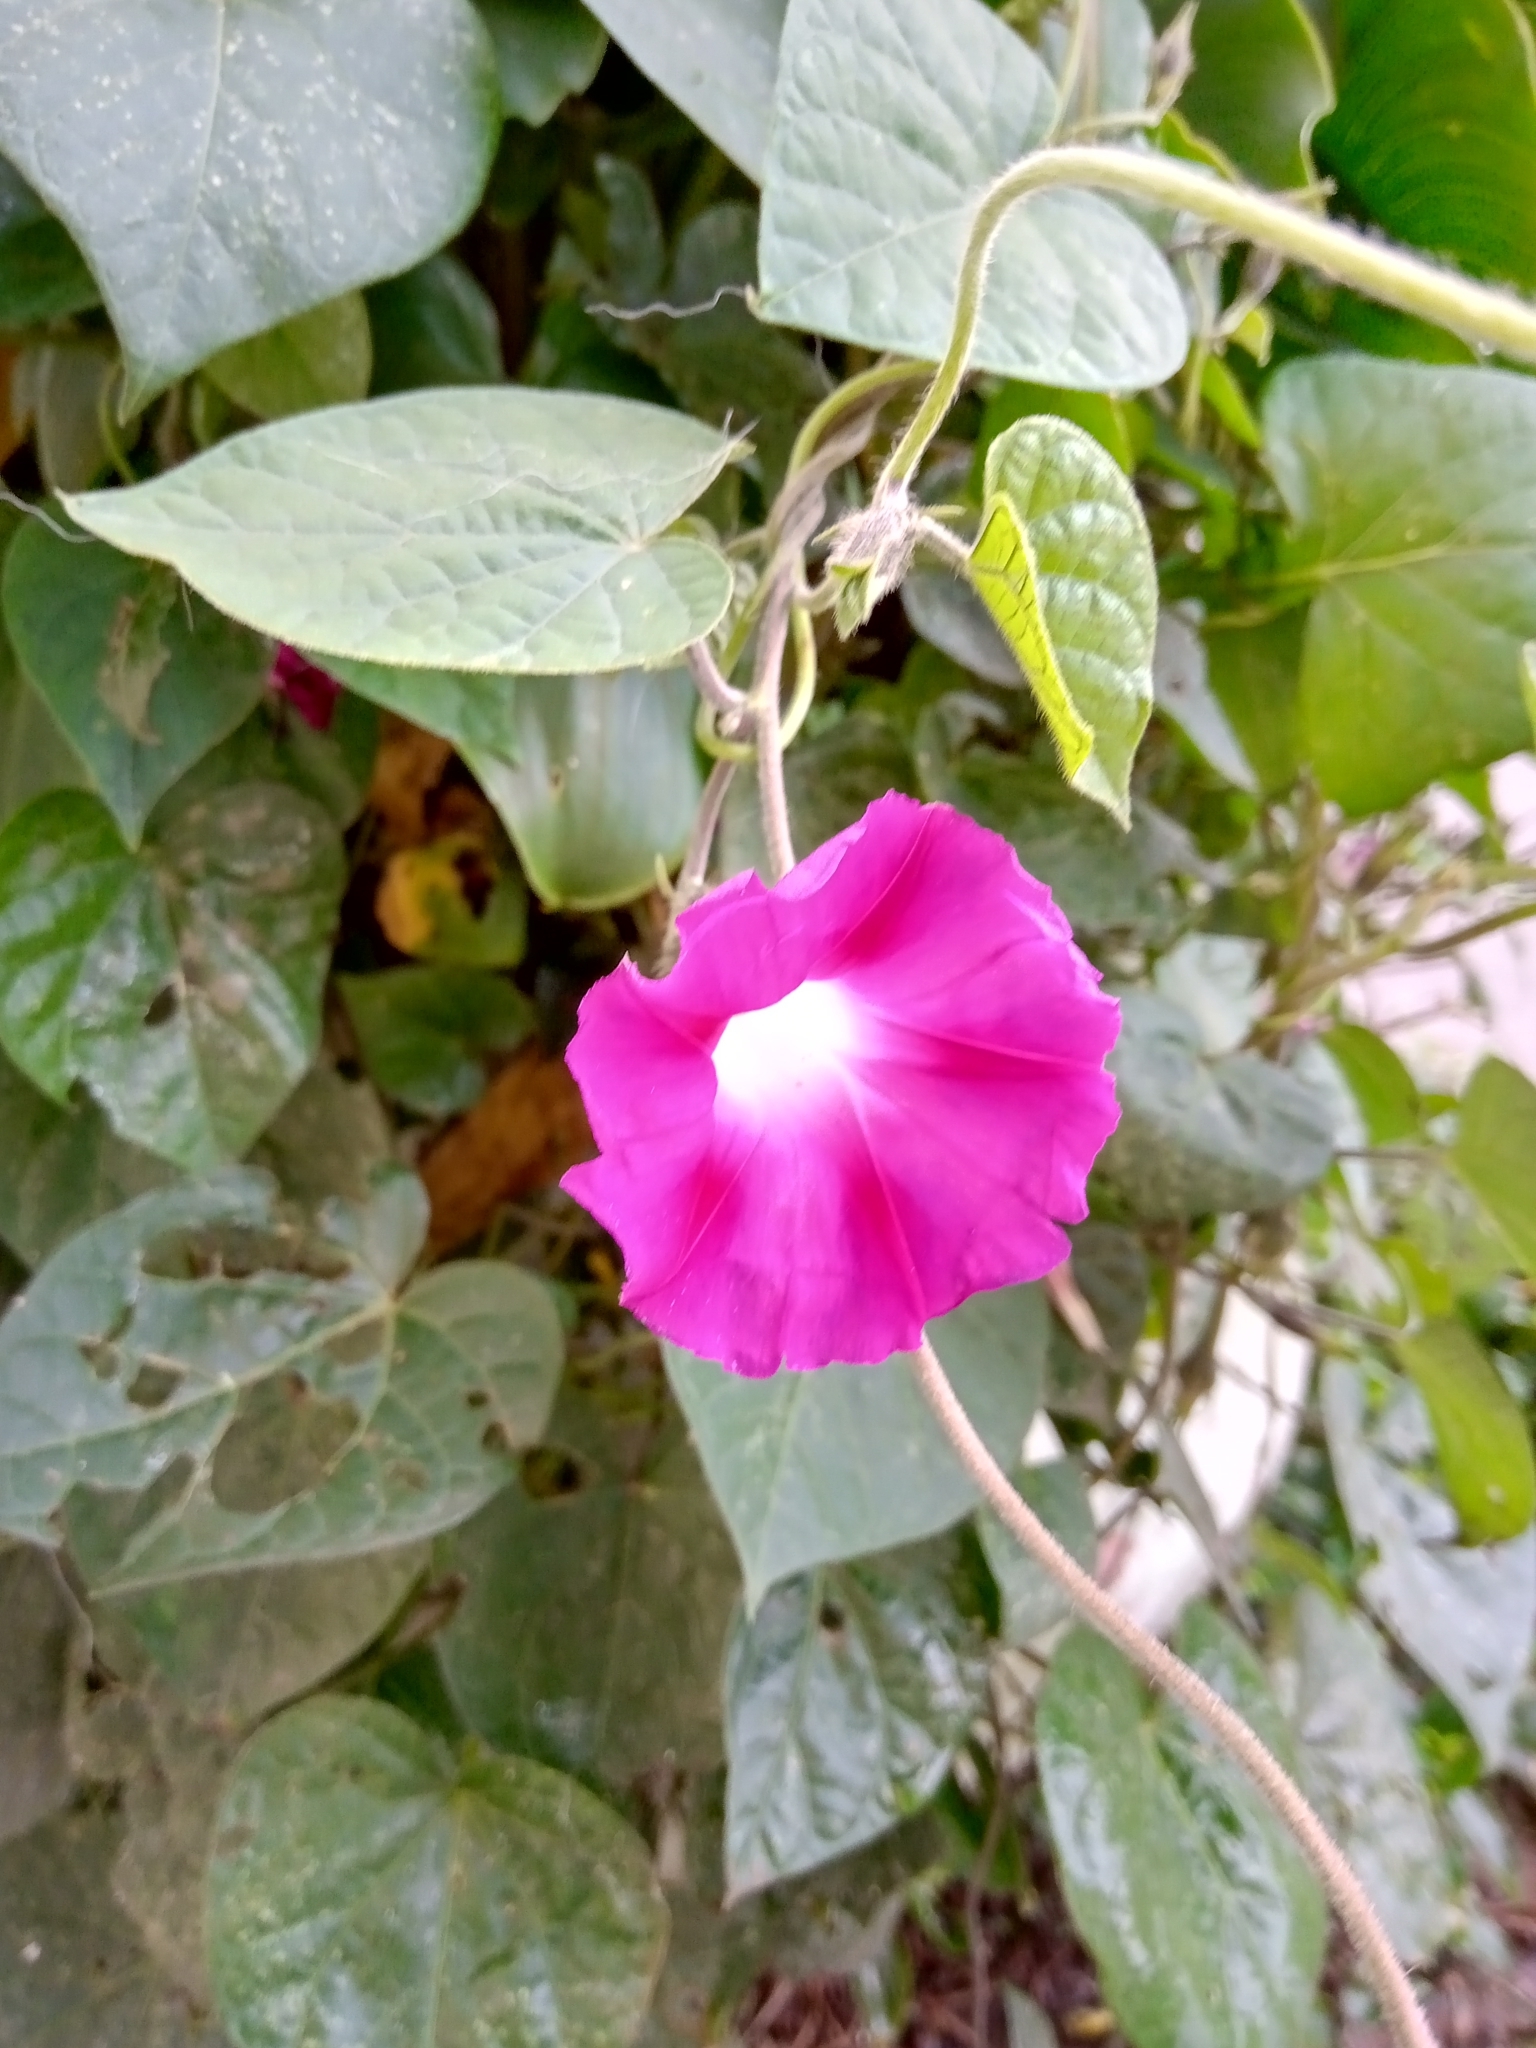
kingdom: Plantae
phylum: Tracheophyta
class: Magnoliopsida
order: Solanales
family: Convolvulaceae
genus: Ipomoea
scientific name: Ipomoea purpurea
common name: Common morning-glory
